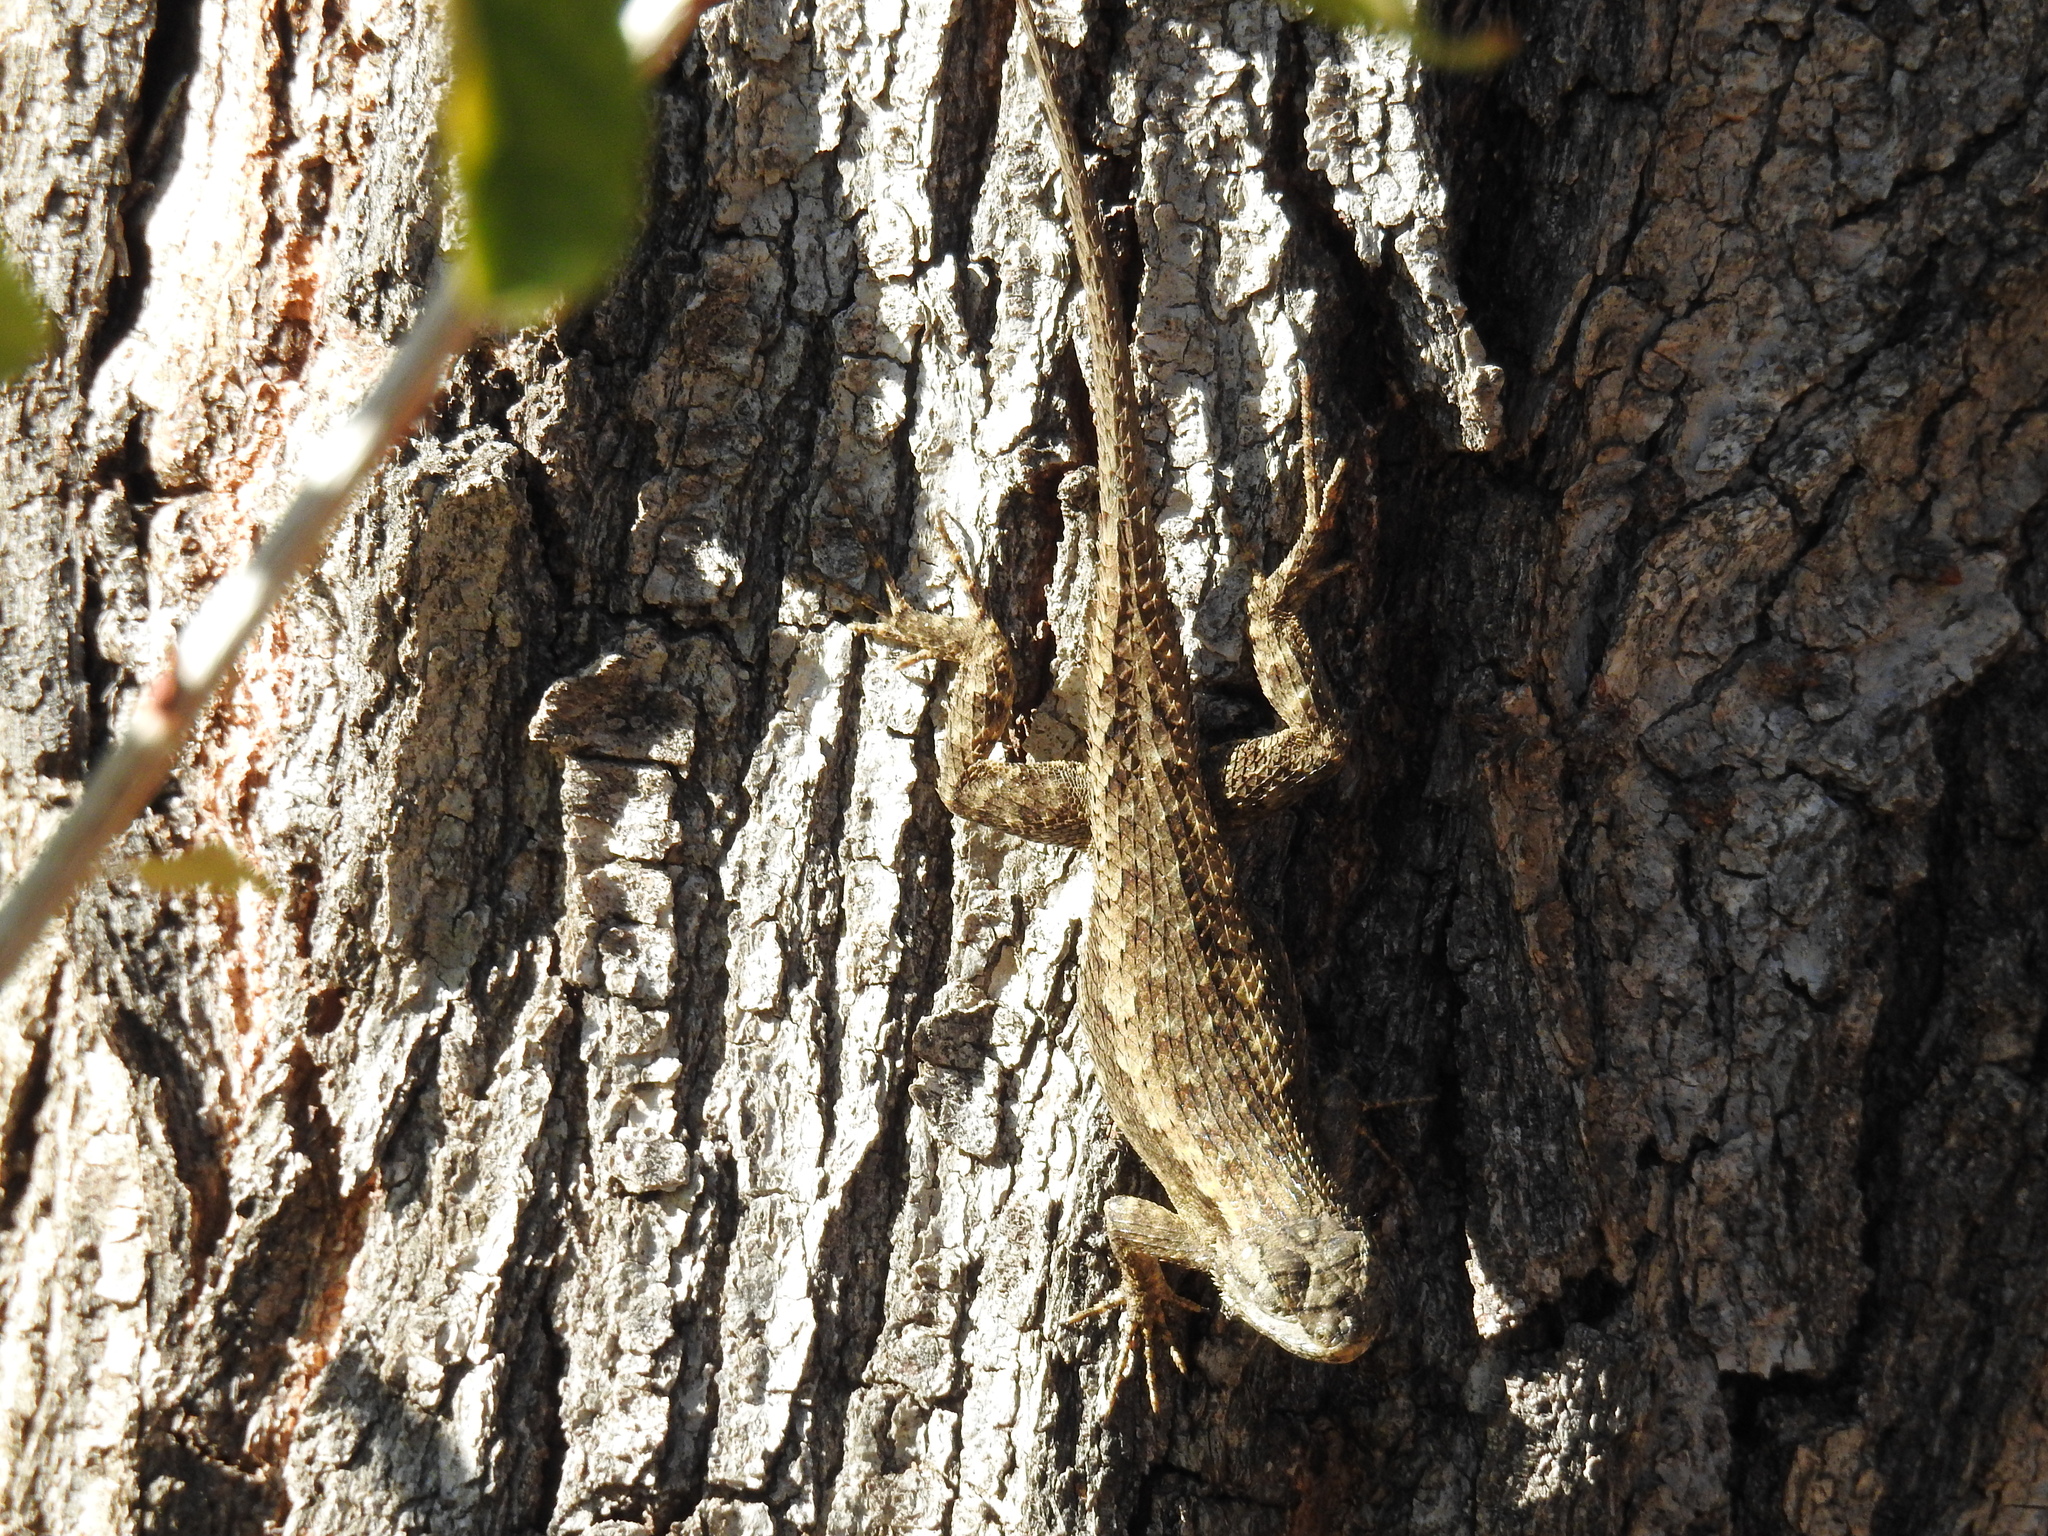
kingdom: Animalia
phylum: Chordata
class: Squamata
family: Phrynosomatidae
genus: Sceloporus
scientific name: Sceloporus occidentalis
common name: Western fence lizard
